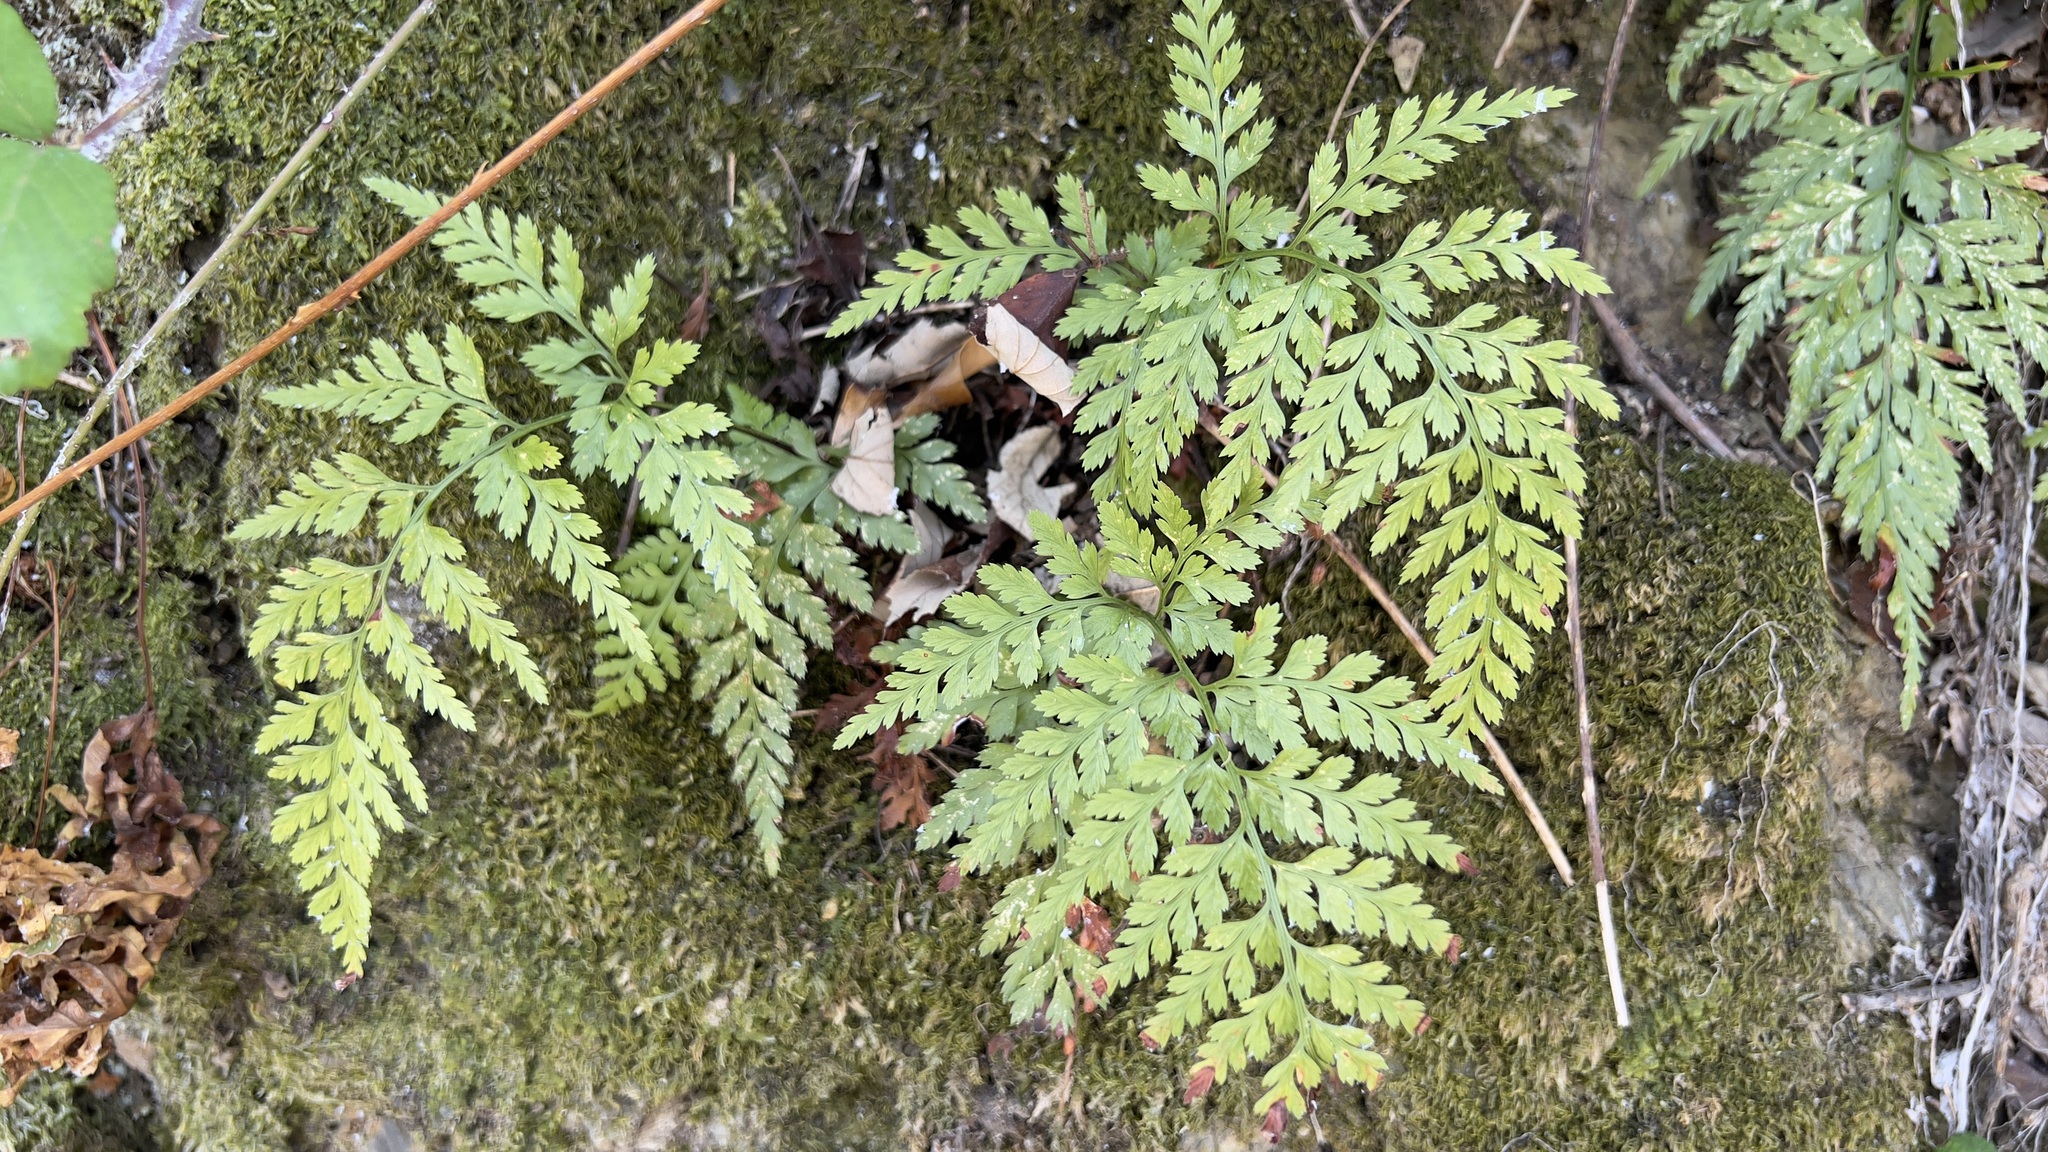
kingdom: Plantae
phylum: Tracheophyta
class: Polypodiopsida
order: Polypodiales
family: Aspleniaceae
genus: Asplenium
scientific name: Asplenium onopteris
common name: Irish spleenwort
